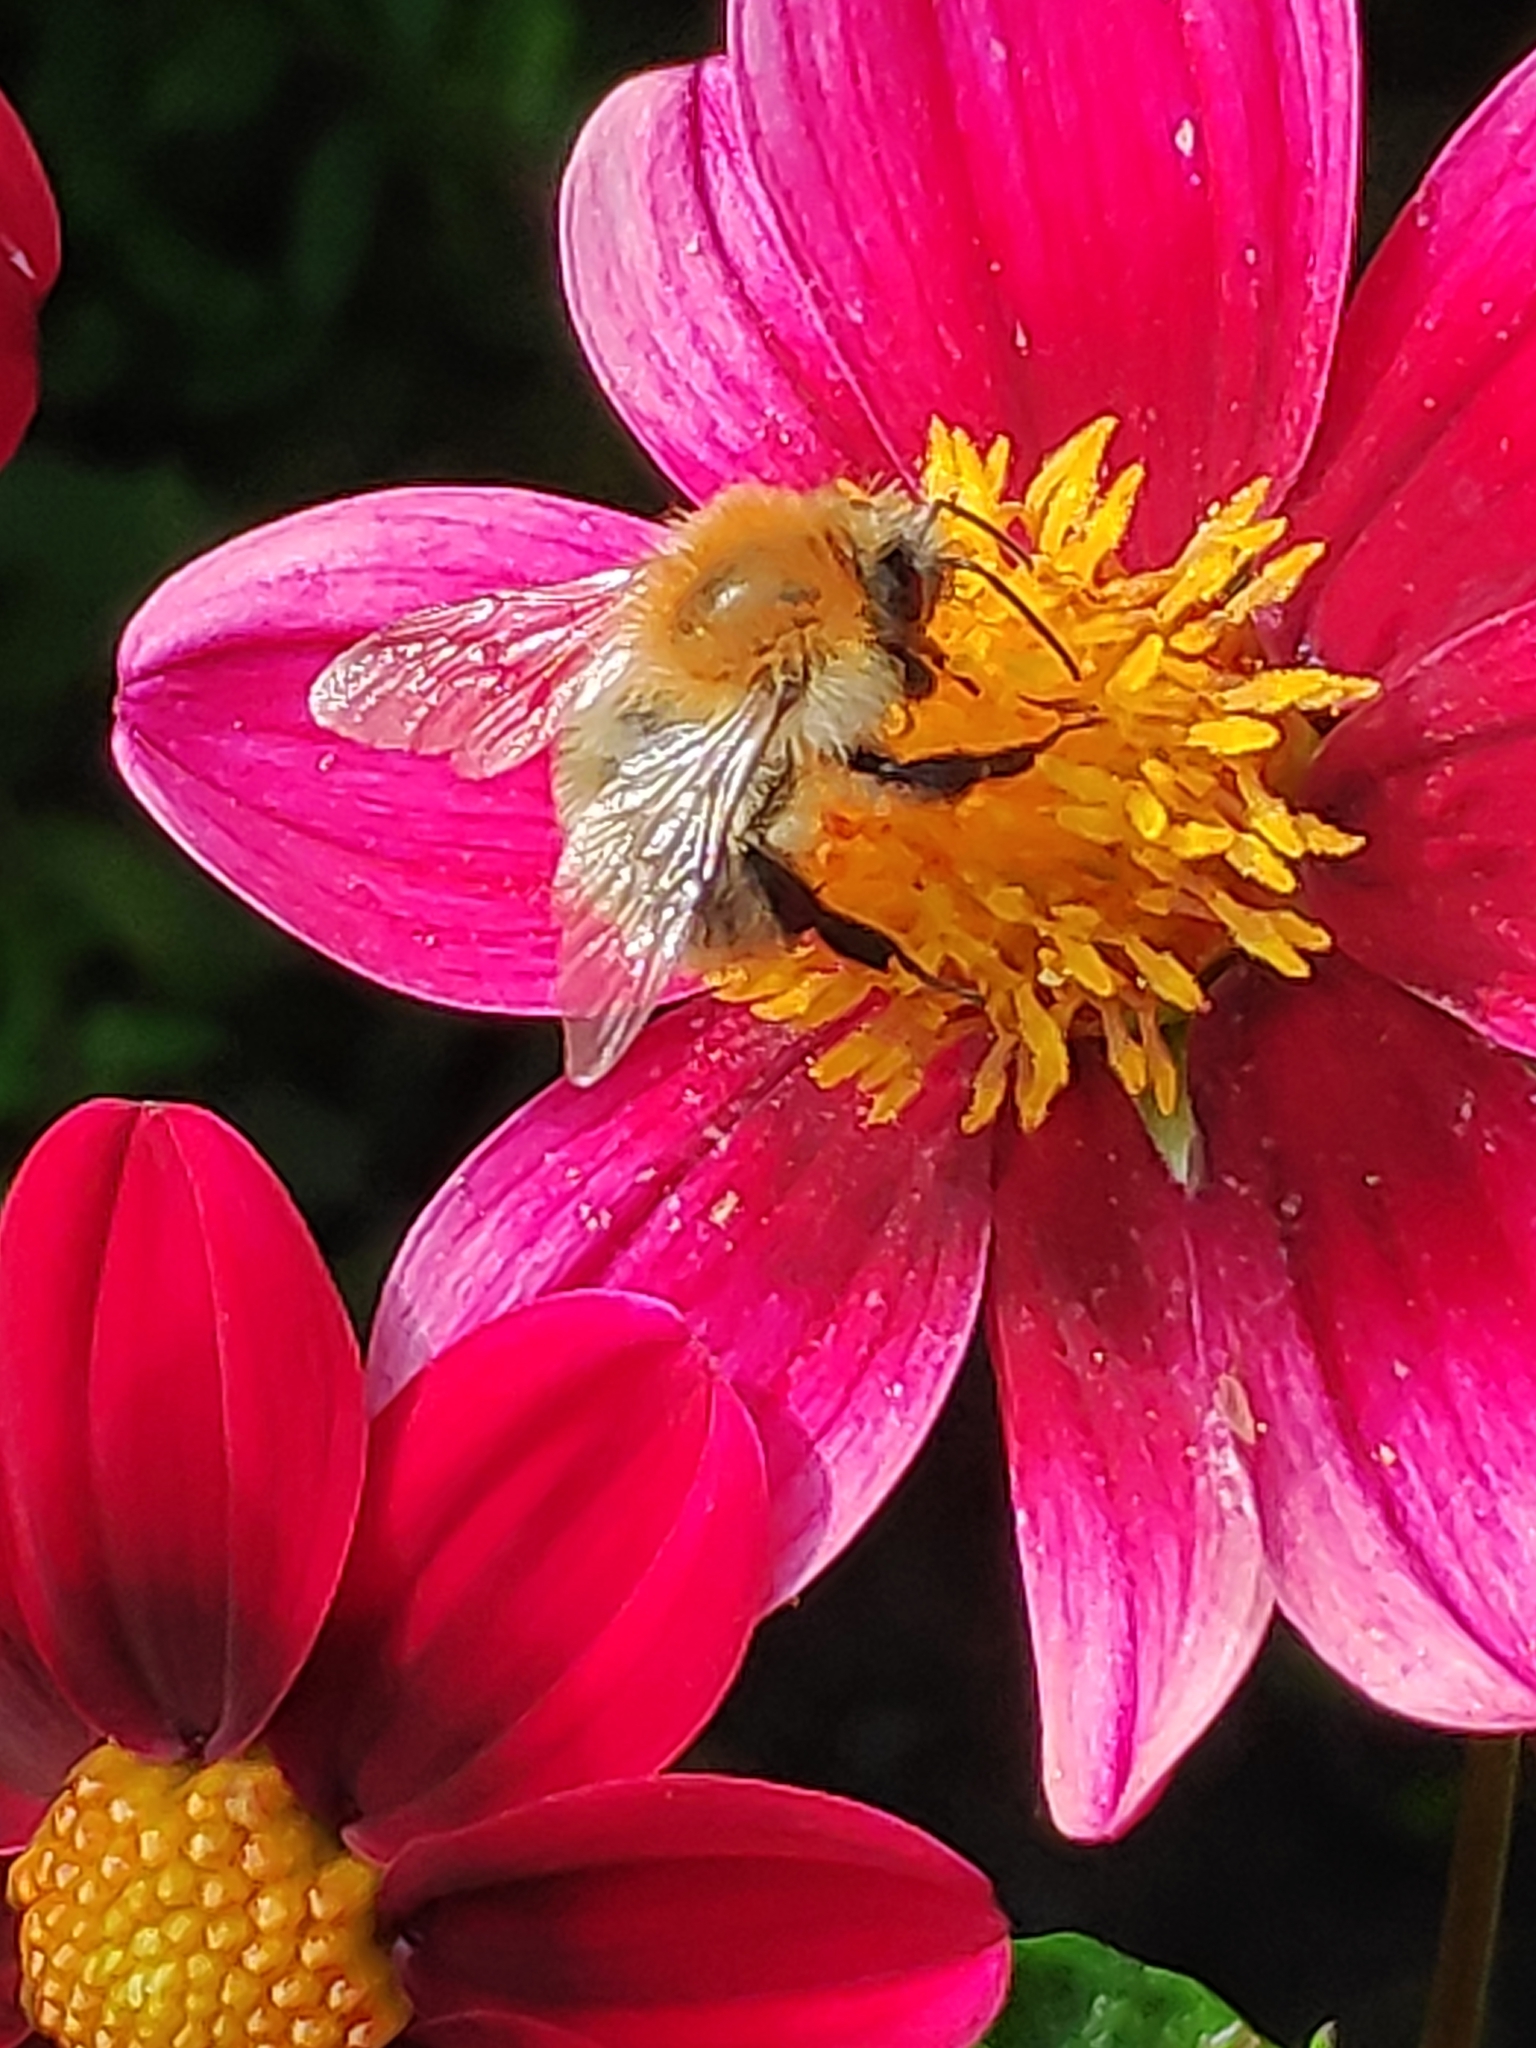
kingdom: Animalia
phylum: Arthropoda
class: Insecta
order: Hymenoptera
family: Apidae
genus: Bombus
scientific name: Bombus pascuorum
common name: Common carder bee
